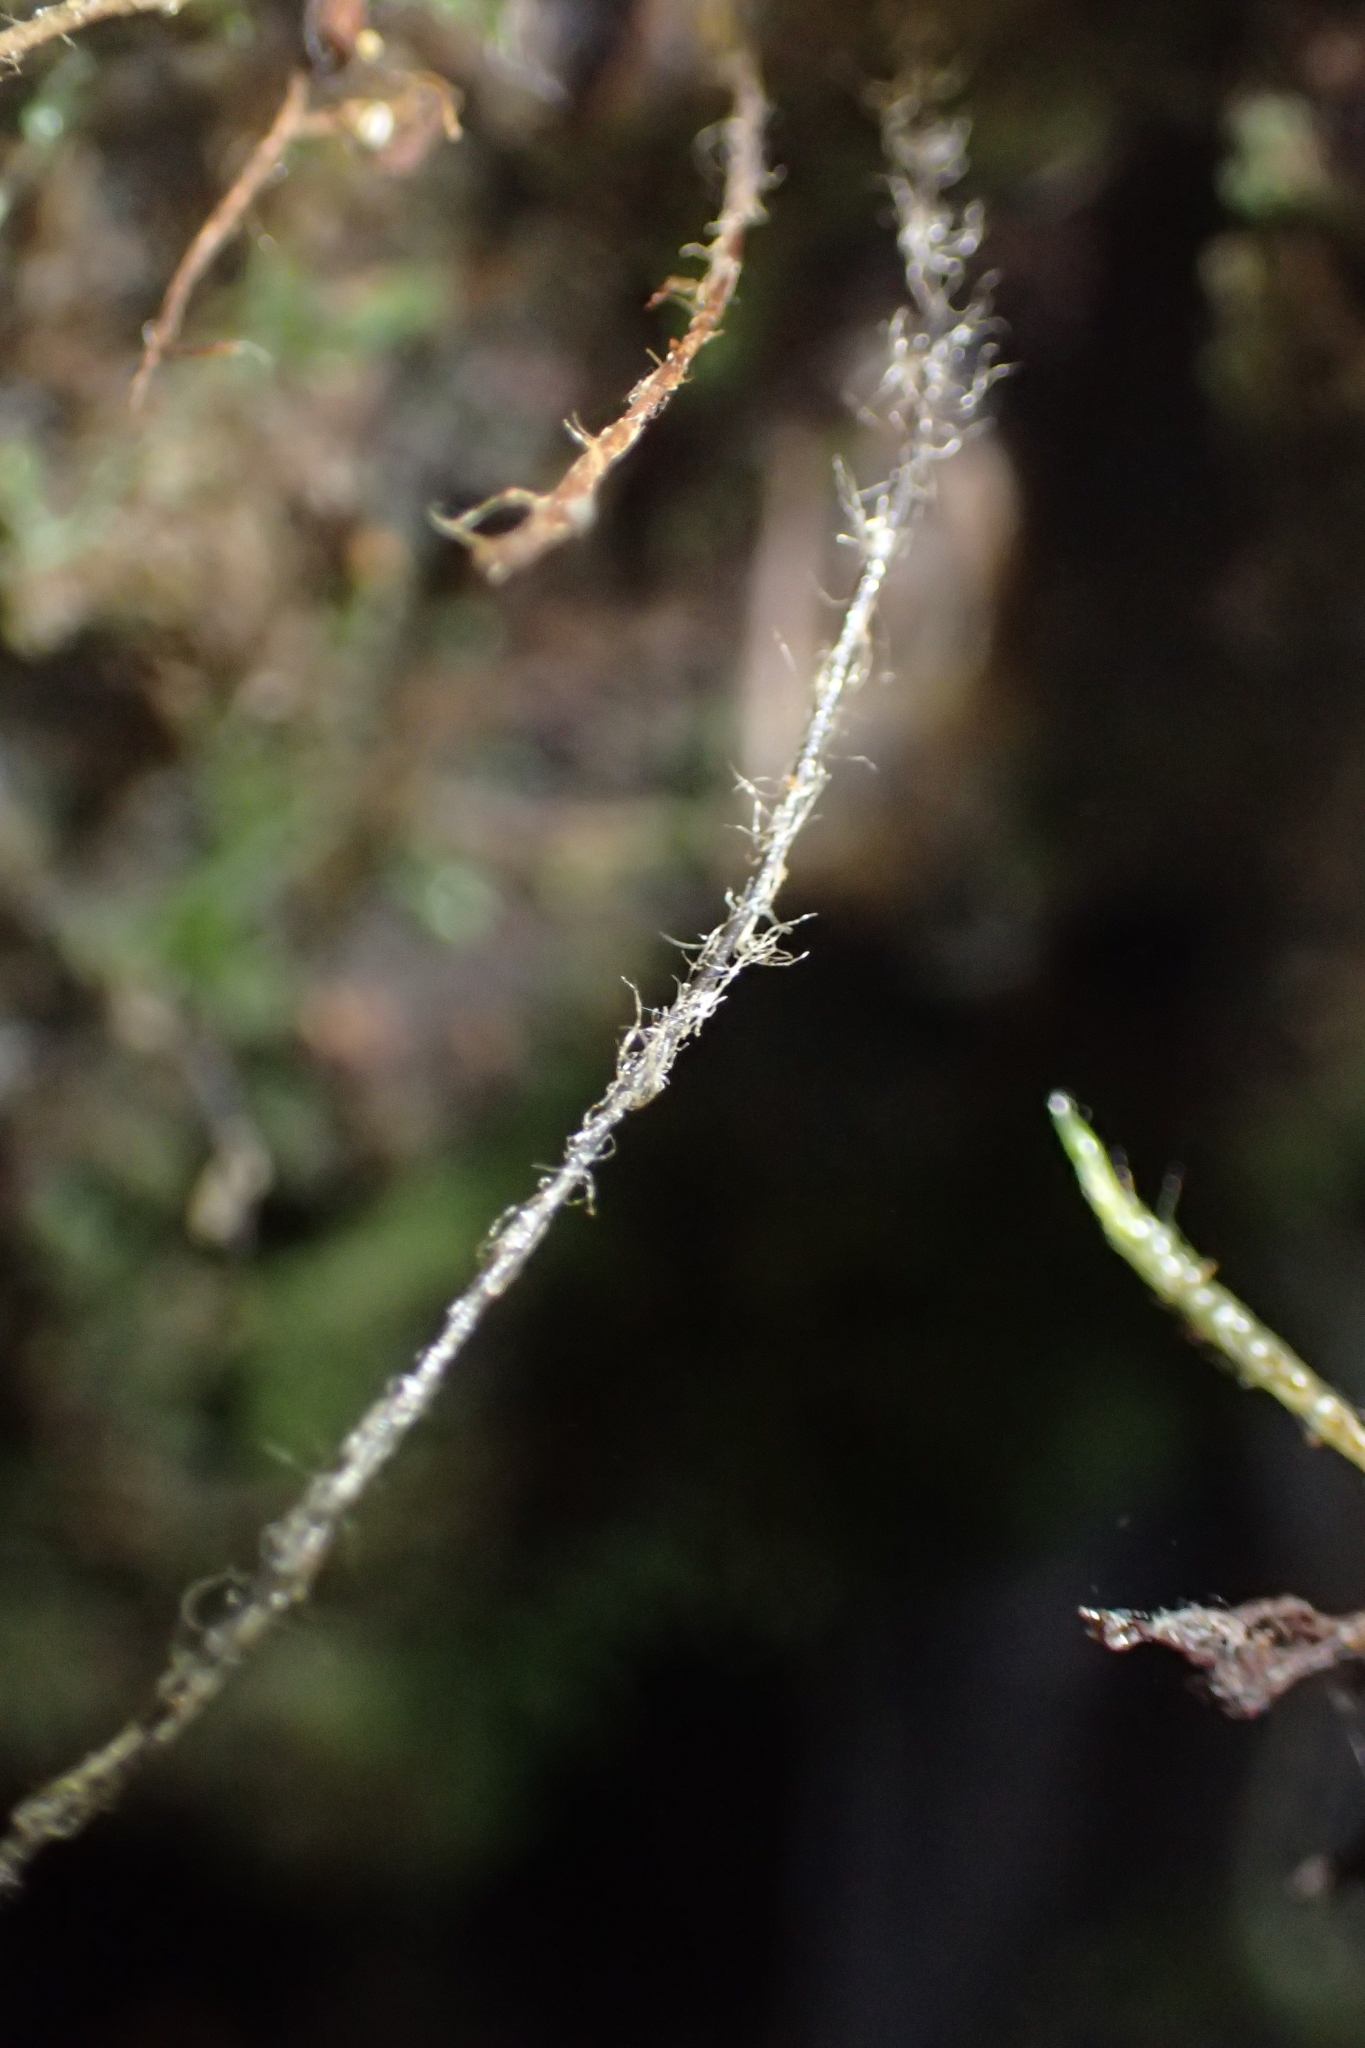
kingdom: Plantae
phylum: Tracheophyta
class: Polypodiopsida
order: Hymenophyllales
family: Hymenophyllaceae
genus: Hymenophyllum
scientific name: Hymenophyllum rufescens
